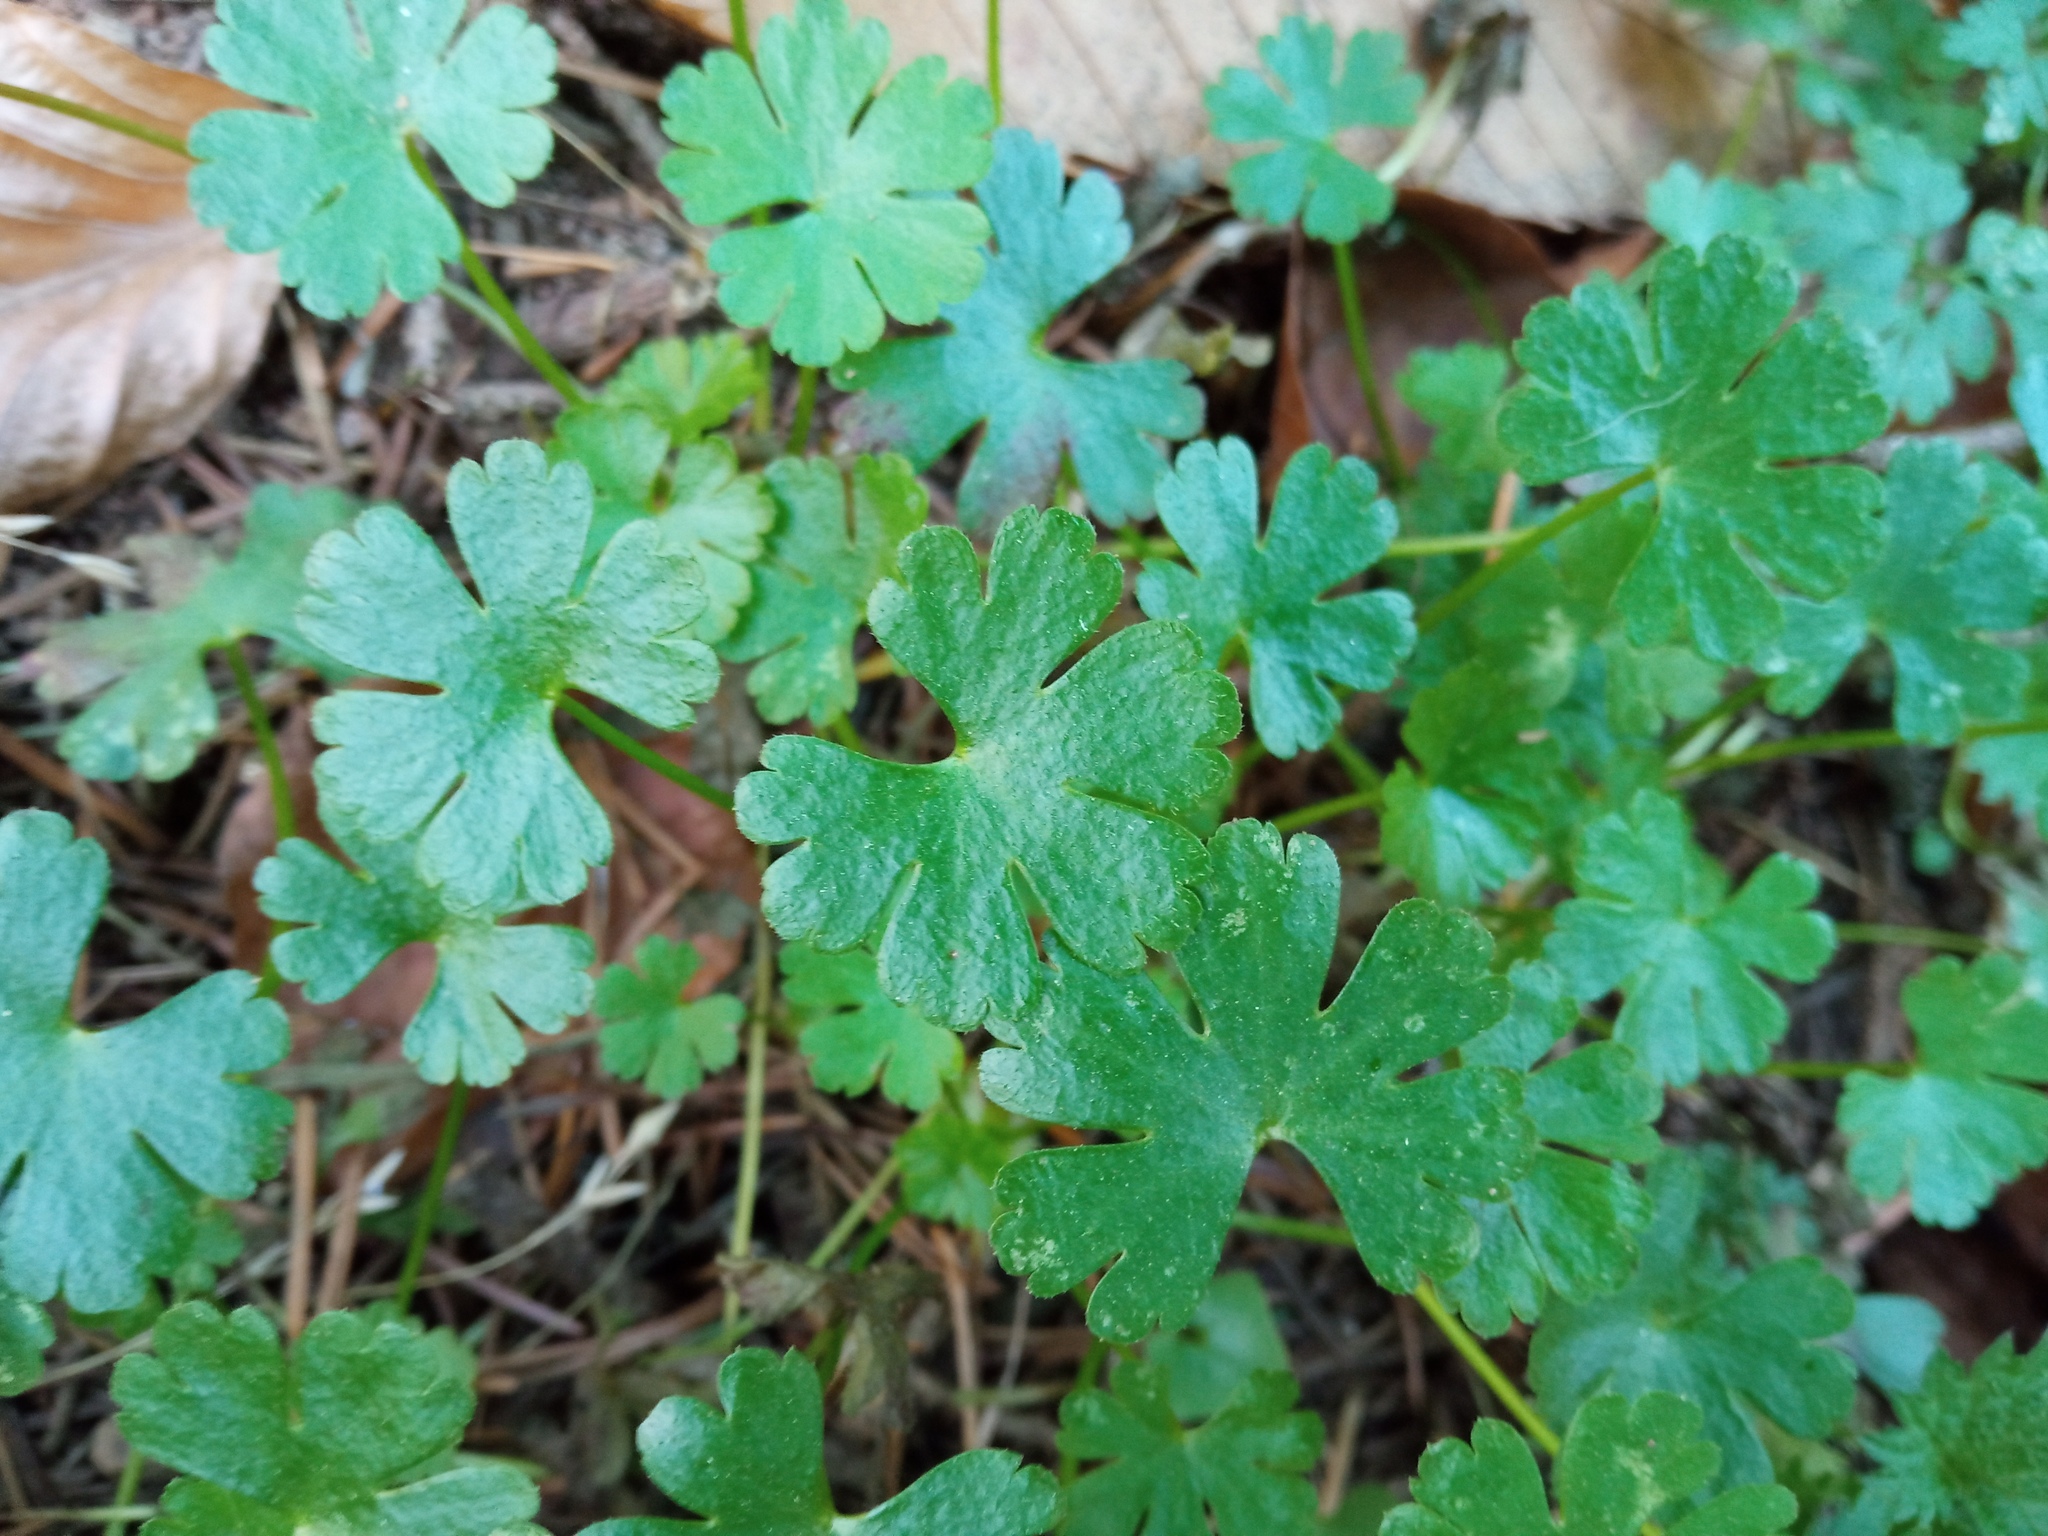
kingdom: Plantae
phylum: Tracheophyta
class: Magnoliopsida
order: Geraniales
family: Geraniaceae
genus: Geranium
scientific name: Geranium lucidum
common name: Shining crane's-bill
